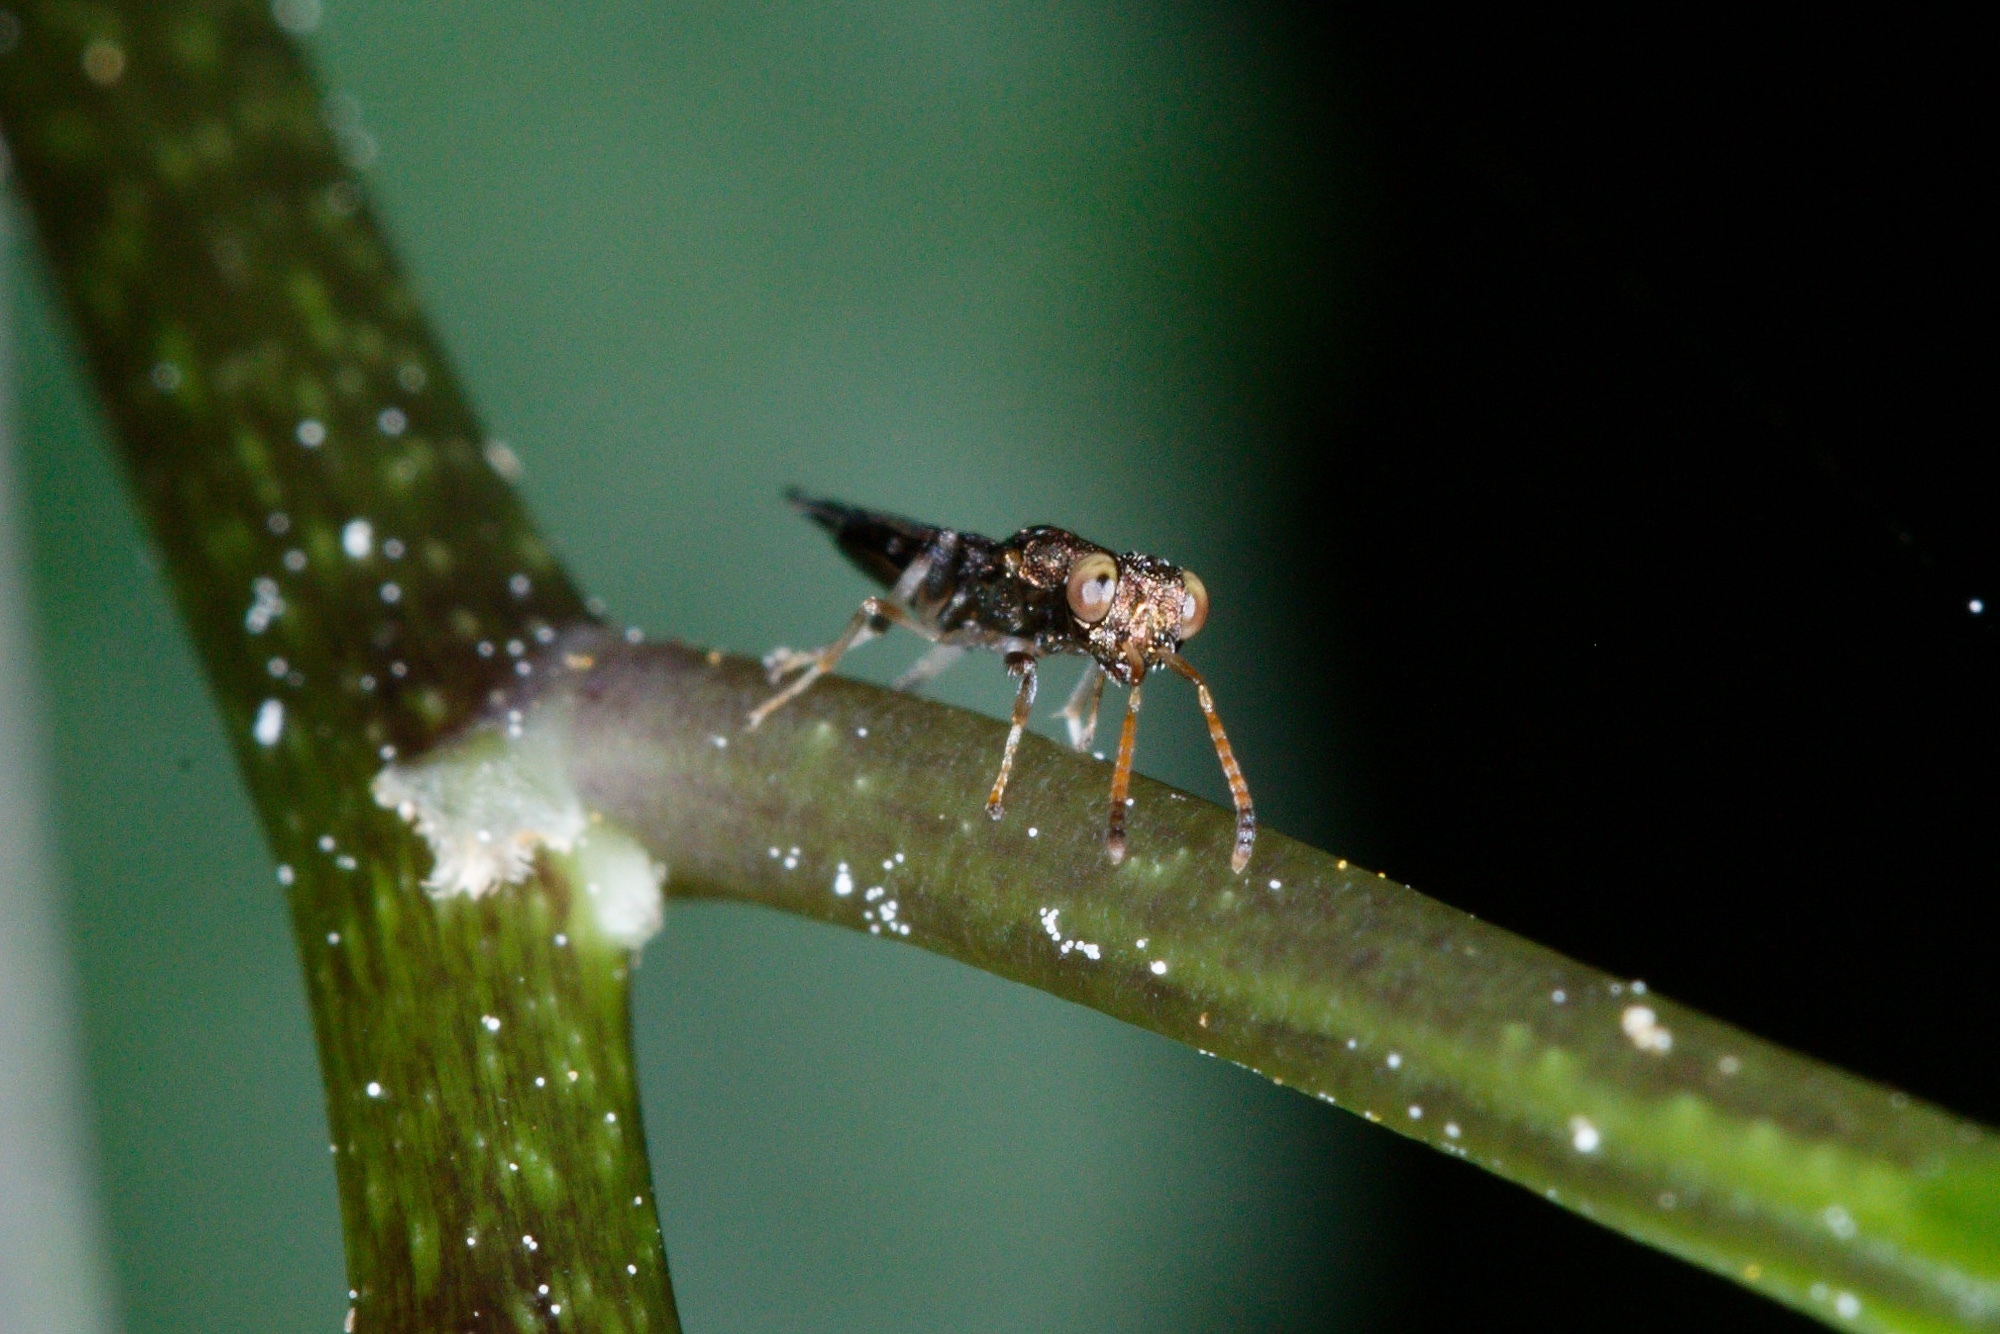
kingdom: Animalia
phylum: Arthropoda
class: Insecta
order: Hymenoptera
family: Pteromalidae
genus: Zeala
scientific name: Zeala walkerae
